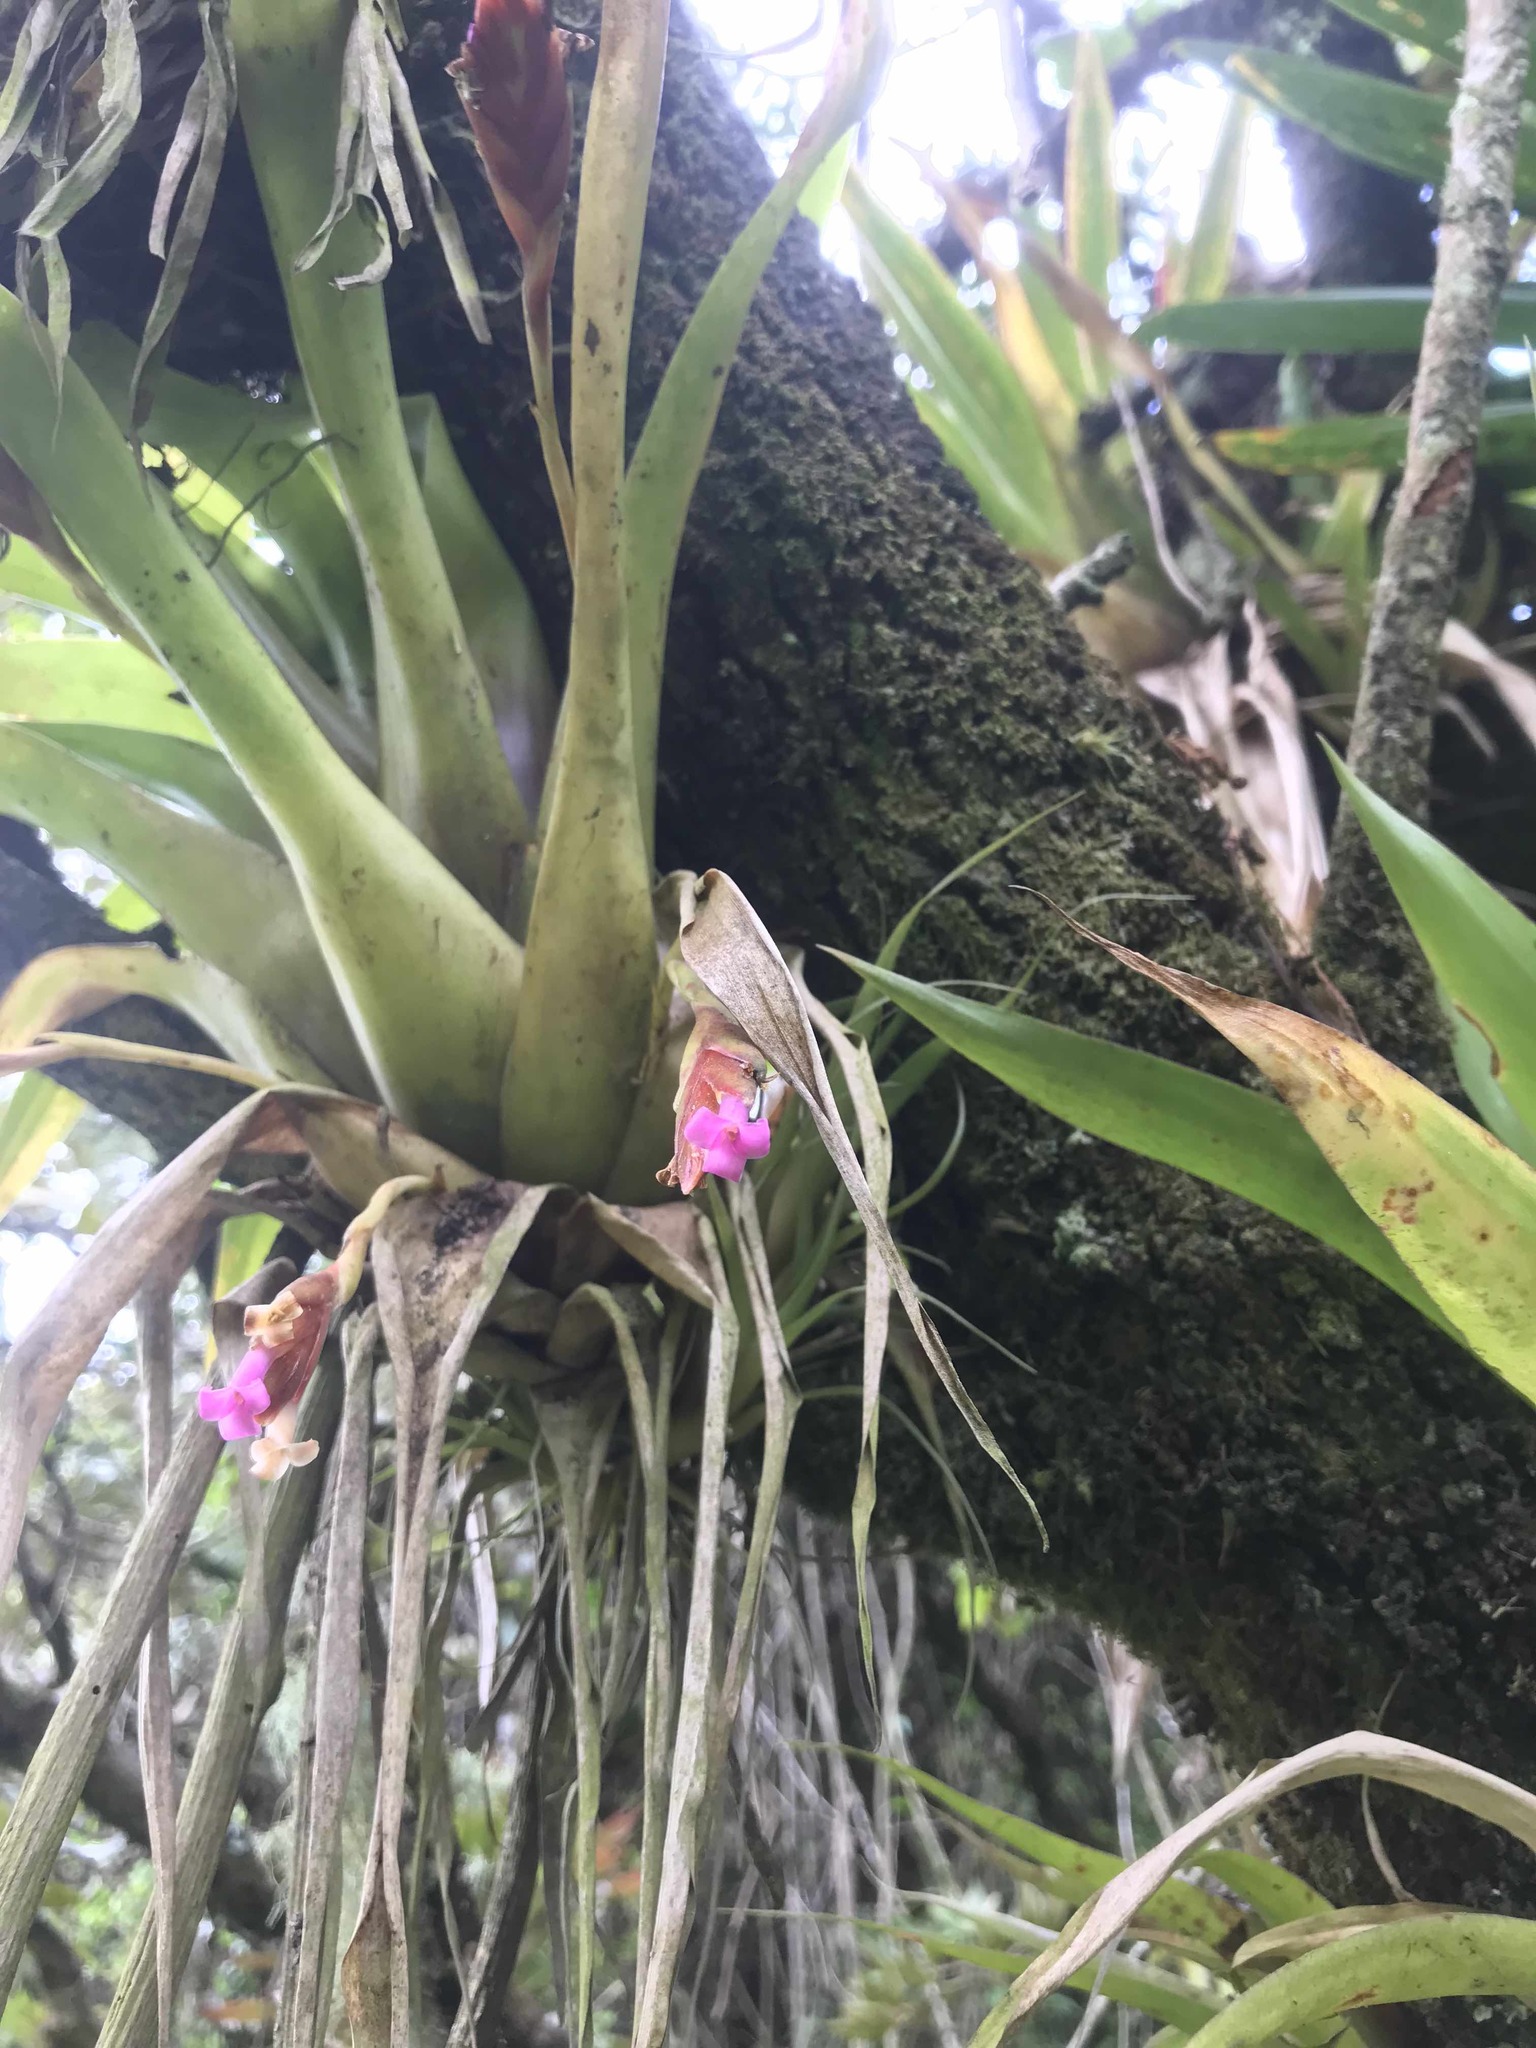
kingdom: Plantae
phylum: Tracheophyta
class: Liliopsida
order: Poales
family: Bromeliaceae
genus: Tillandsia
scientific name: Tillandsia complanata
